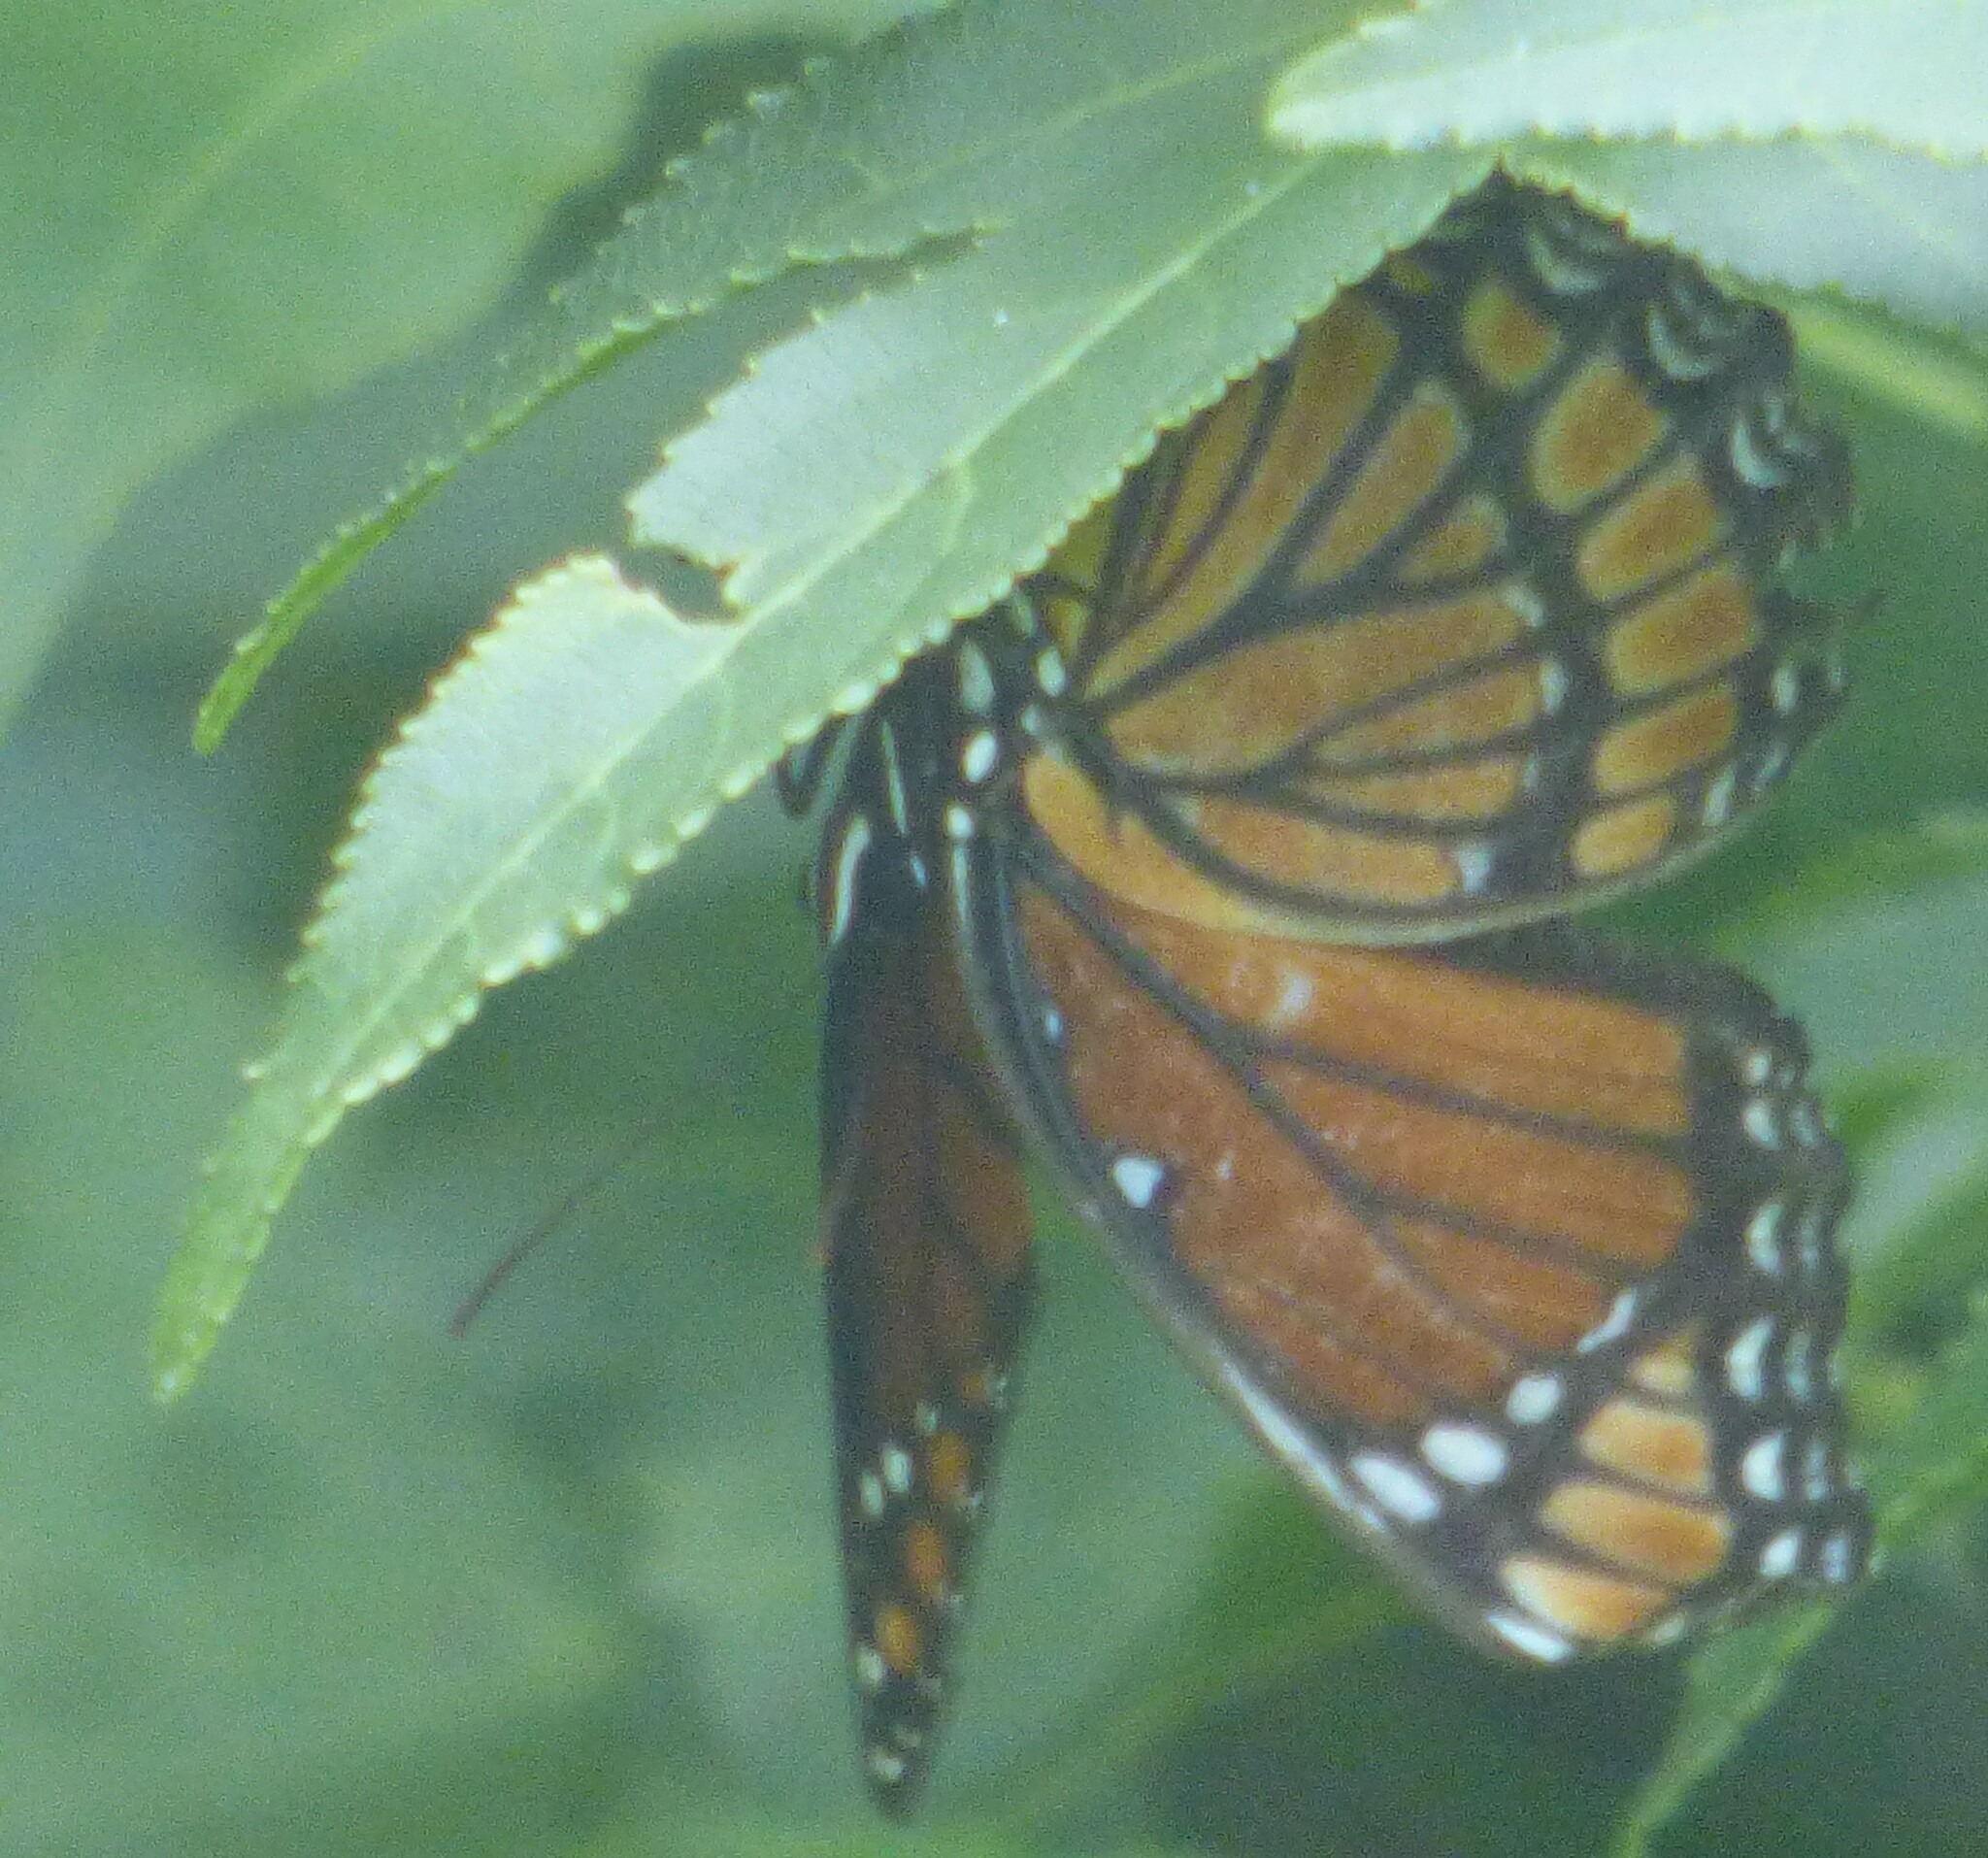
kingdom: Animalia
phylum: Arthropoda
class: Insecta
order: Lepidoptera
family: Nymphalidae
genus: Limenitis
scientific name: Limenitis archippus
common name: Viceroy
